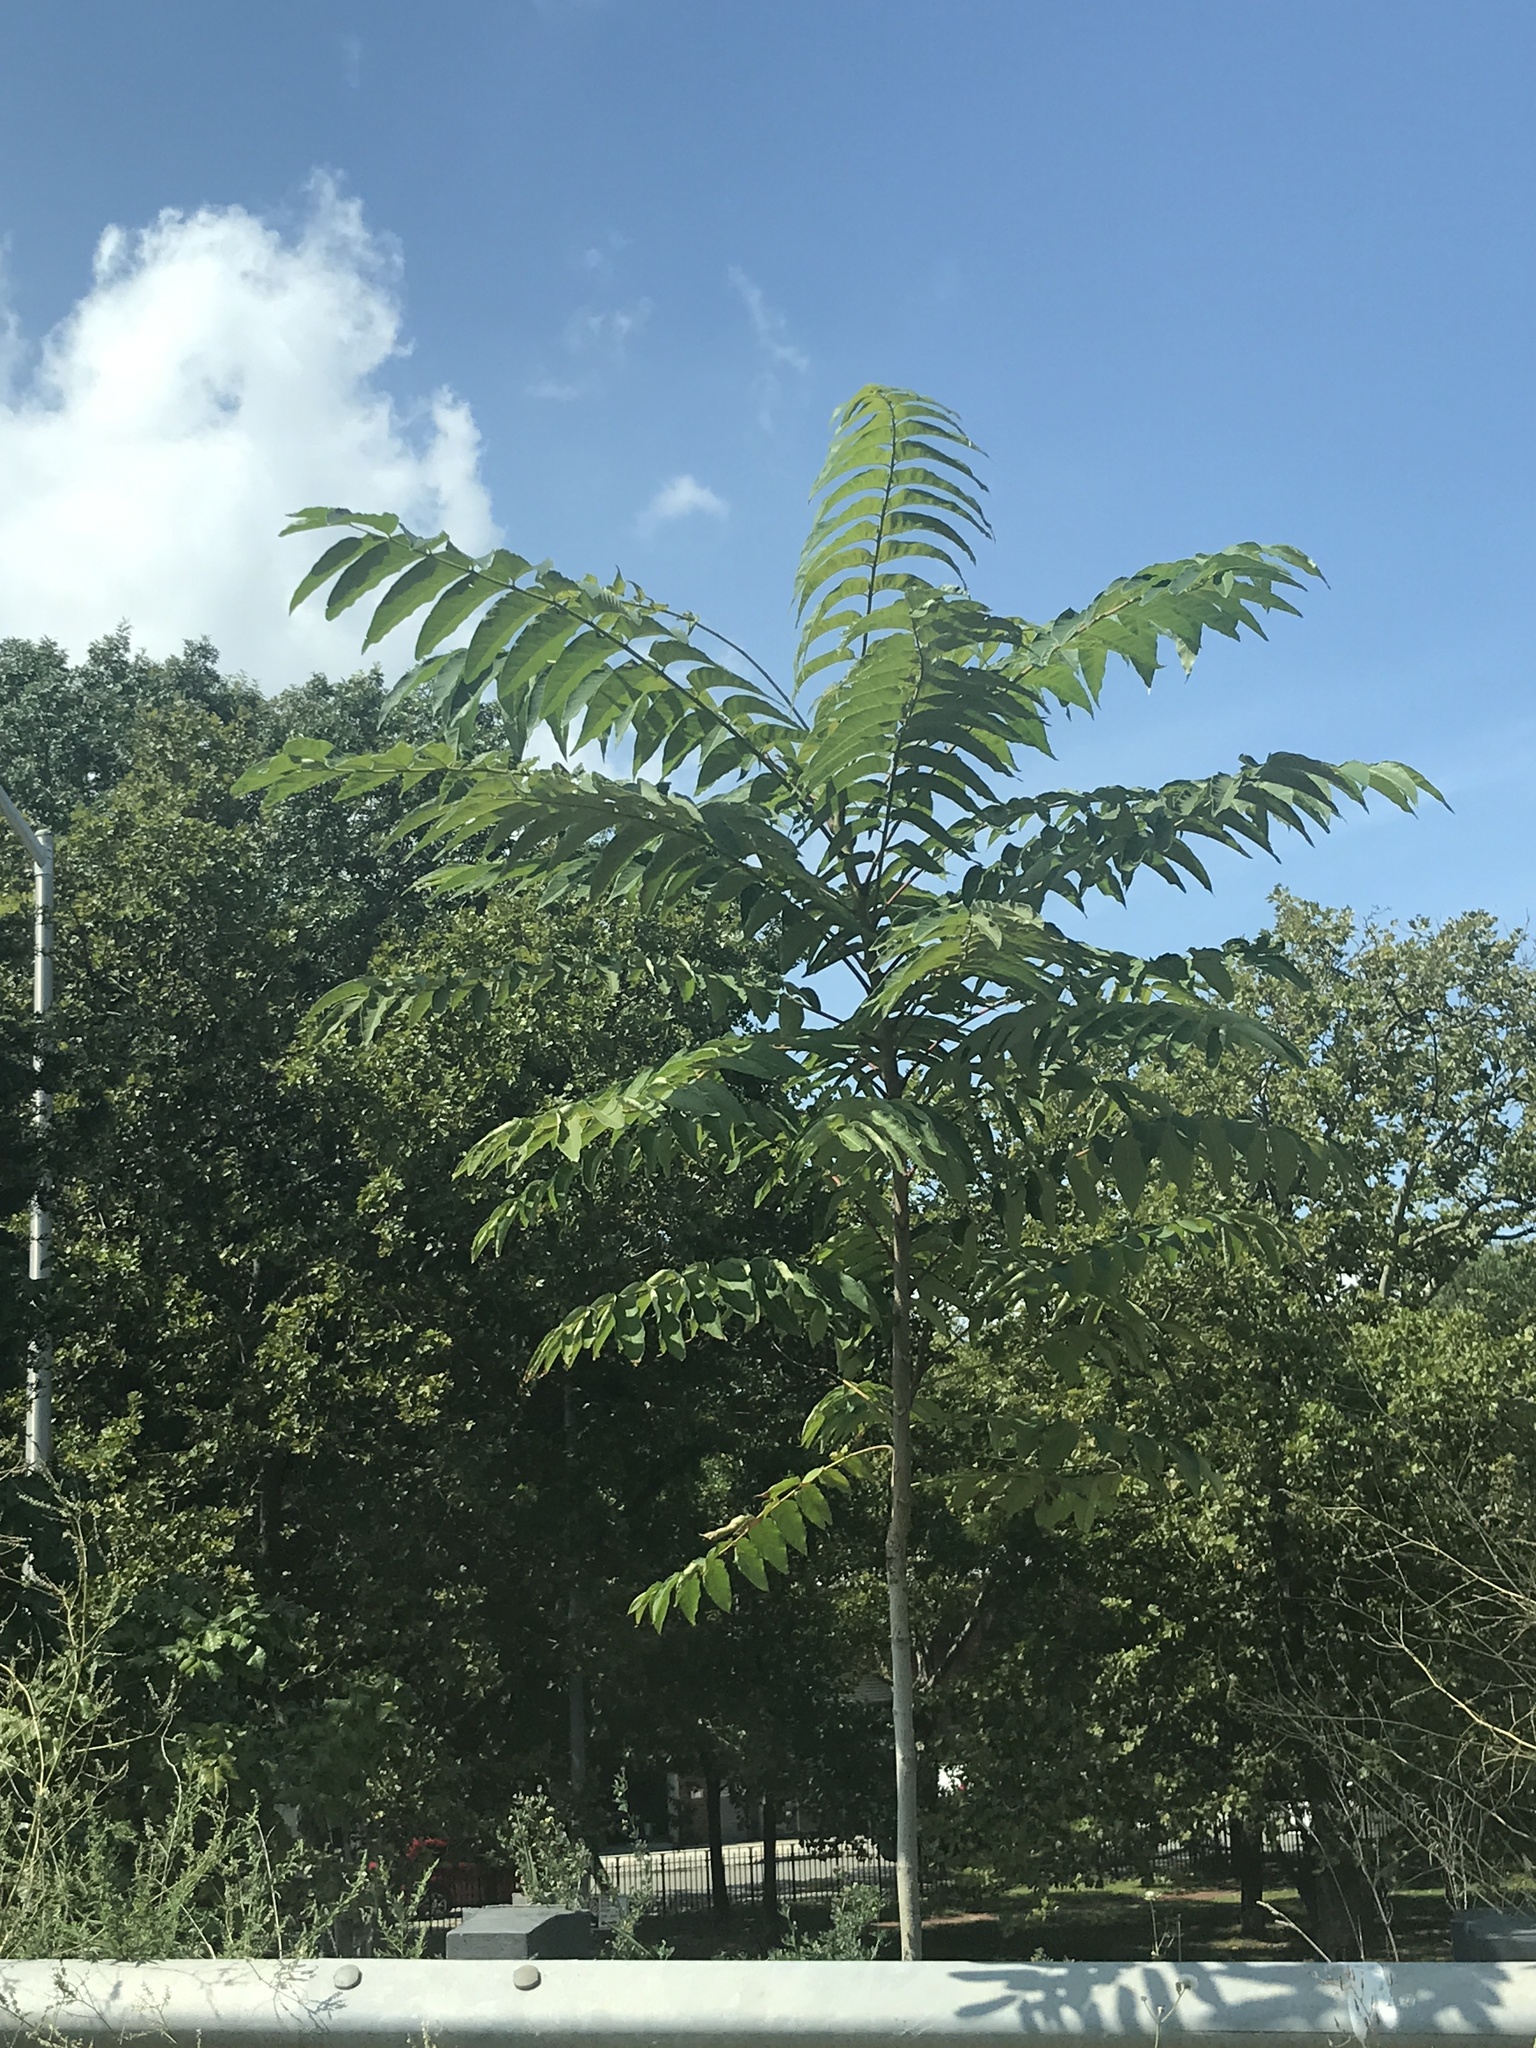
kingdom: Plantae
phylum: Tracheophyta
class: Magnoliopsida
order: Sapindales
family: Simaroubaceae
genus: Ailanthus
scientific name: Ailanthus altissima
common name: Tree-of-heaven
